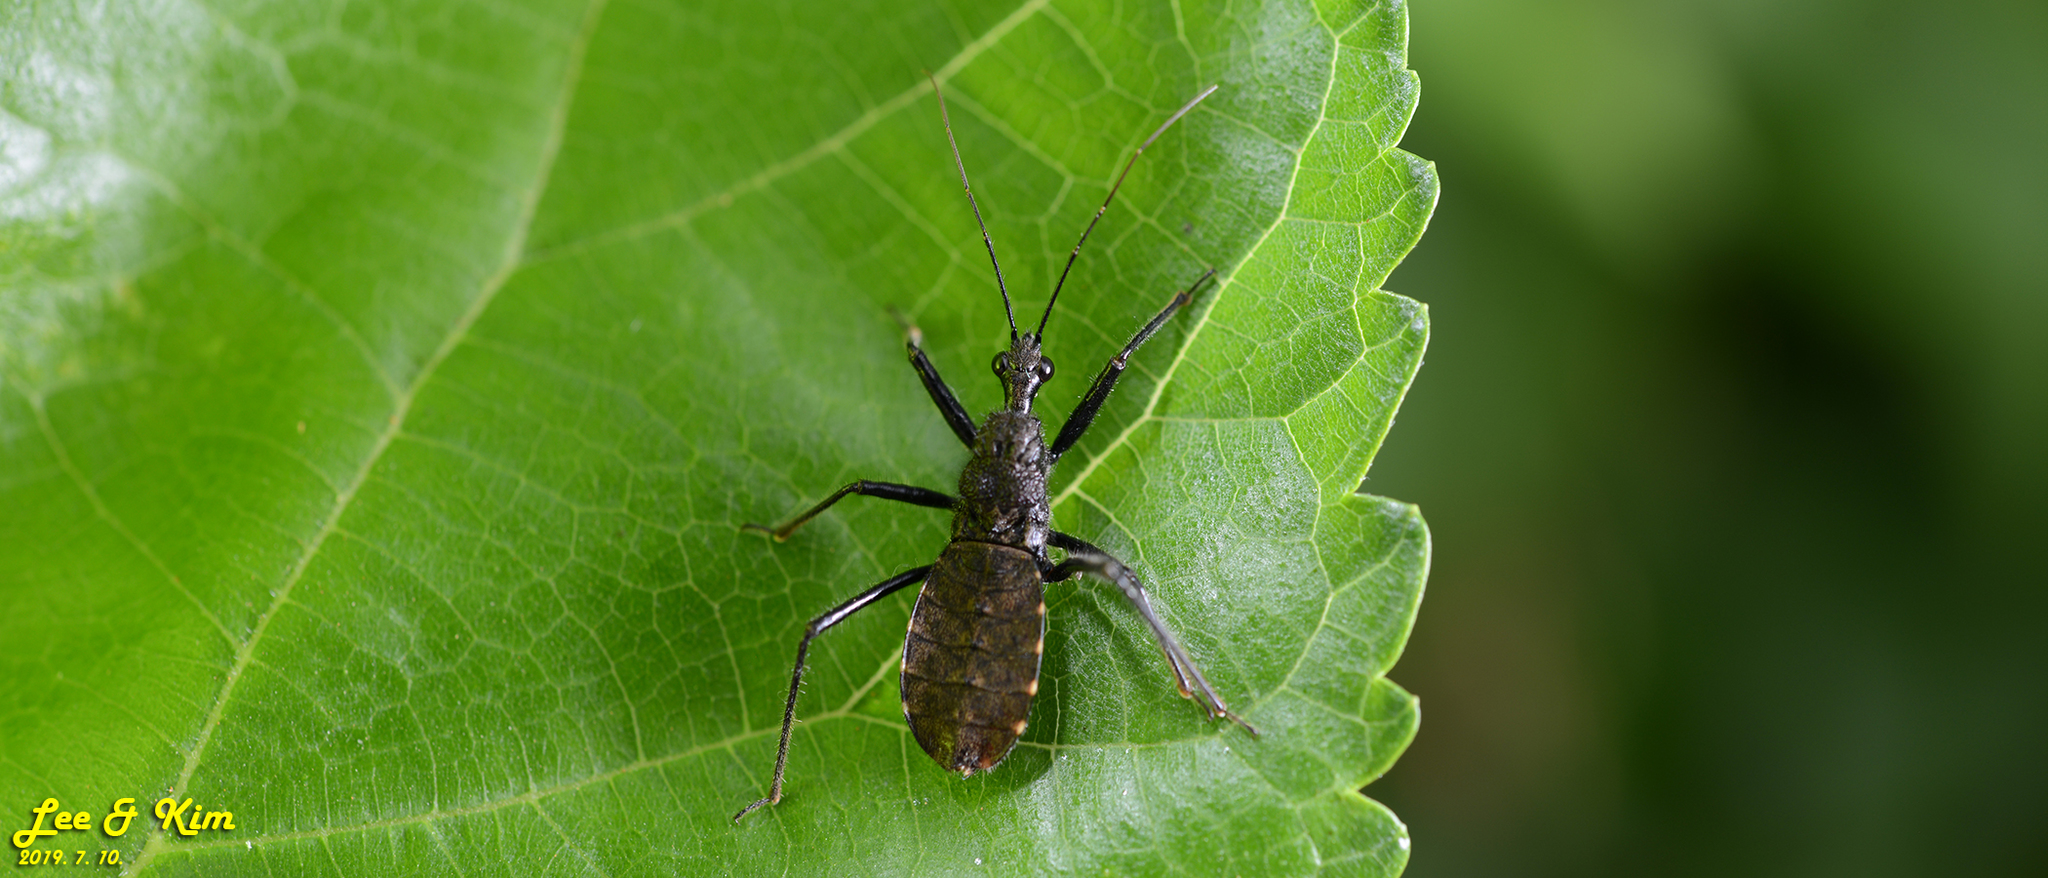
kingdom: Animalia
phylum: Arthropoda
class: Insecta
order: Hemiptera
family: Reduviidae
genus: Coranus
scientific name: Coranus dilatatus
